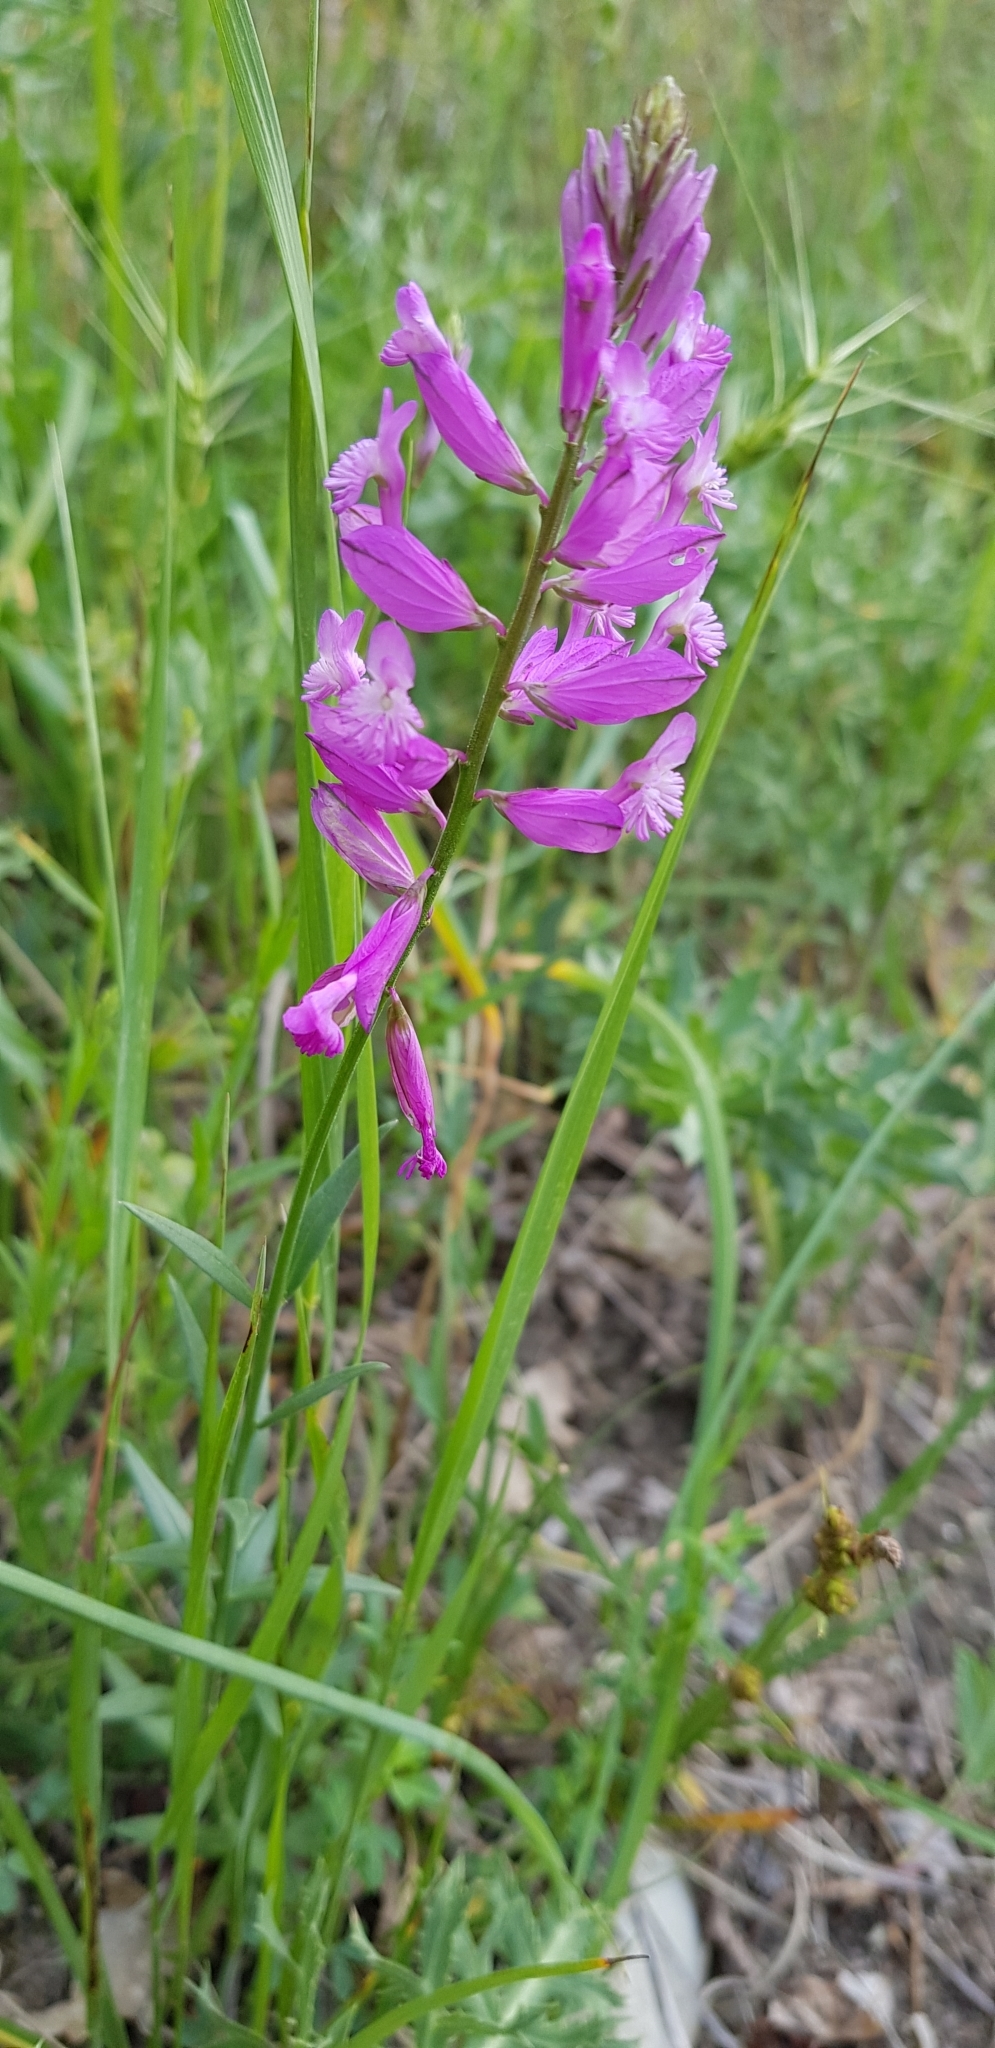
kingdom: Plantae
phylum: Tracheophyta
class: Magnoliopsida
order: Fabales
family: Polygalaceae
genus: Polygala
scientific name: Polygala major
